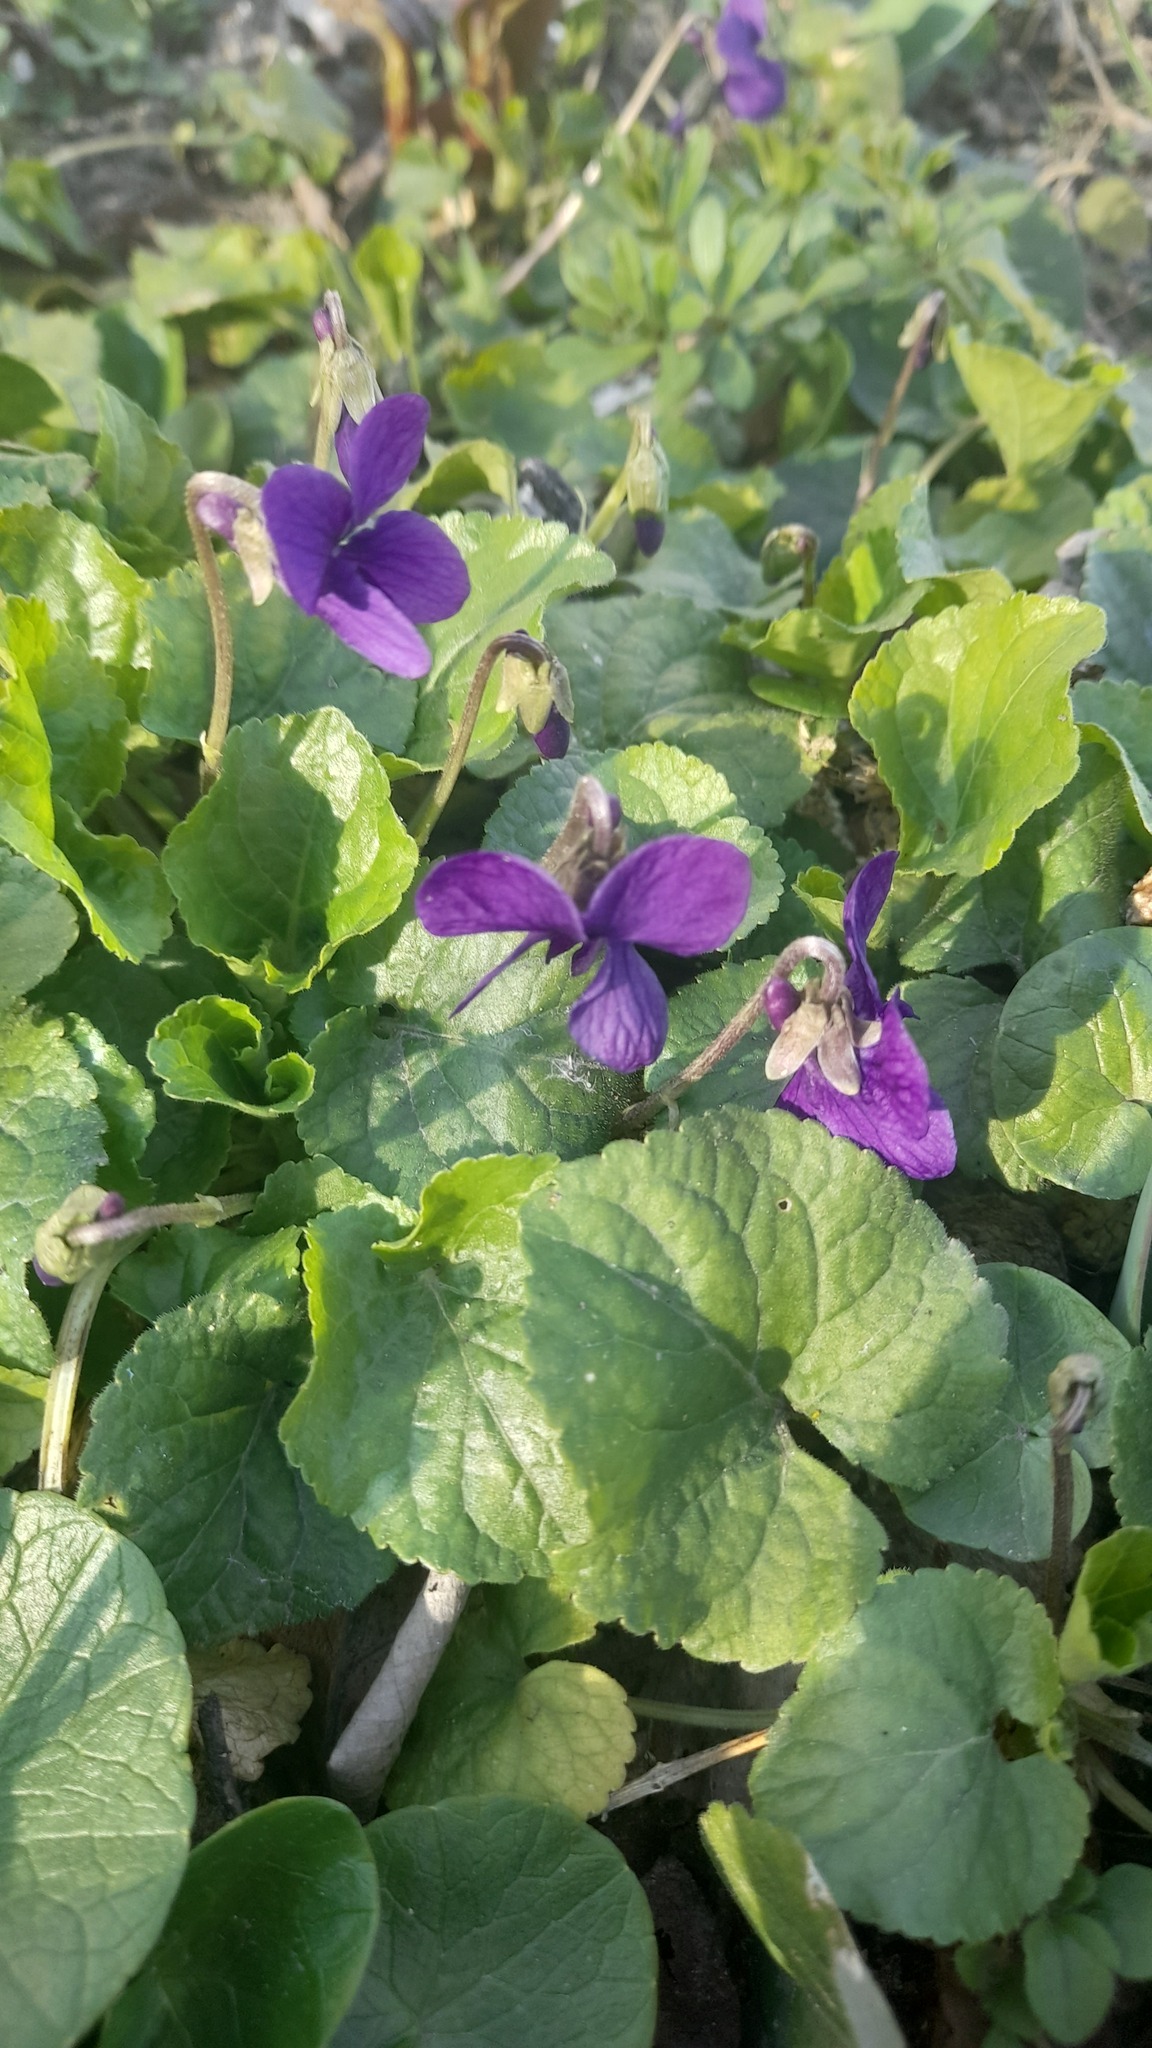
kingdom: Plantae
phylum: Tracheophyta
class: Magnoliopsida
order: Malpighiales
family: Violaceae
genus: Viola
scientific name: Viola odorata
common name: Sweet violet
